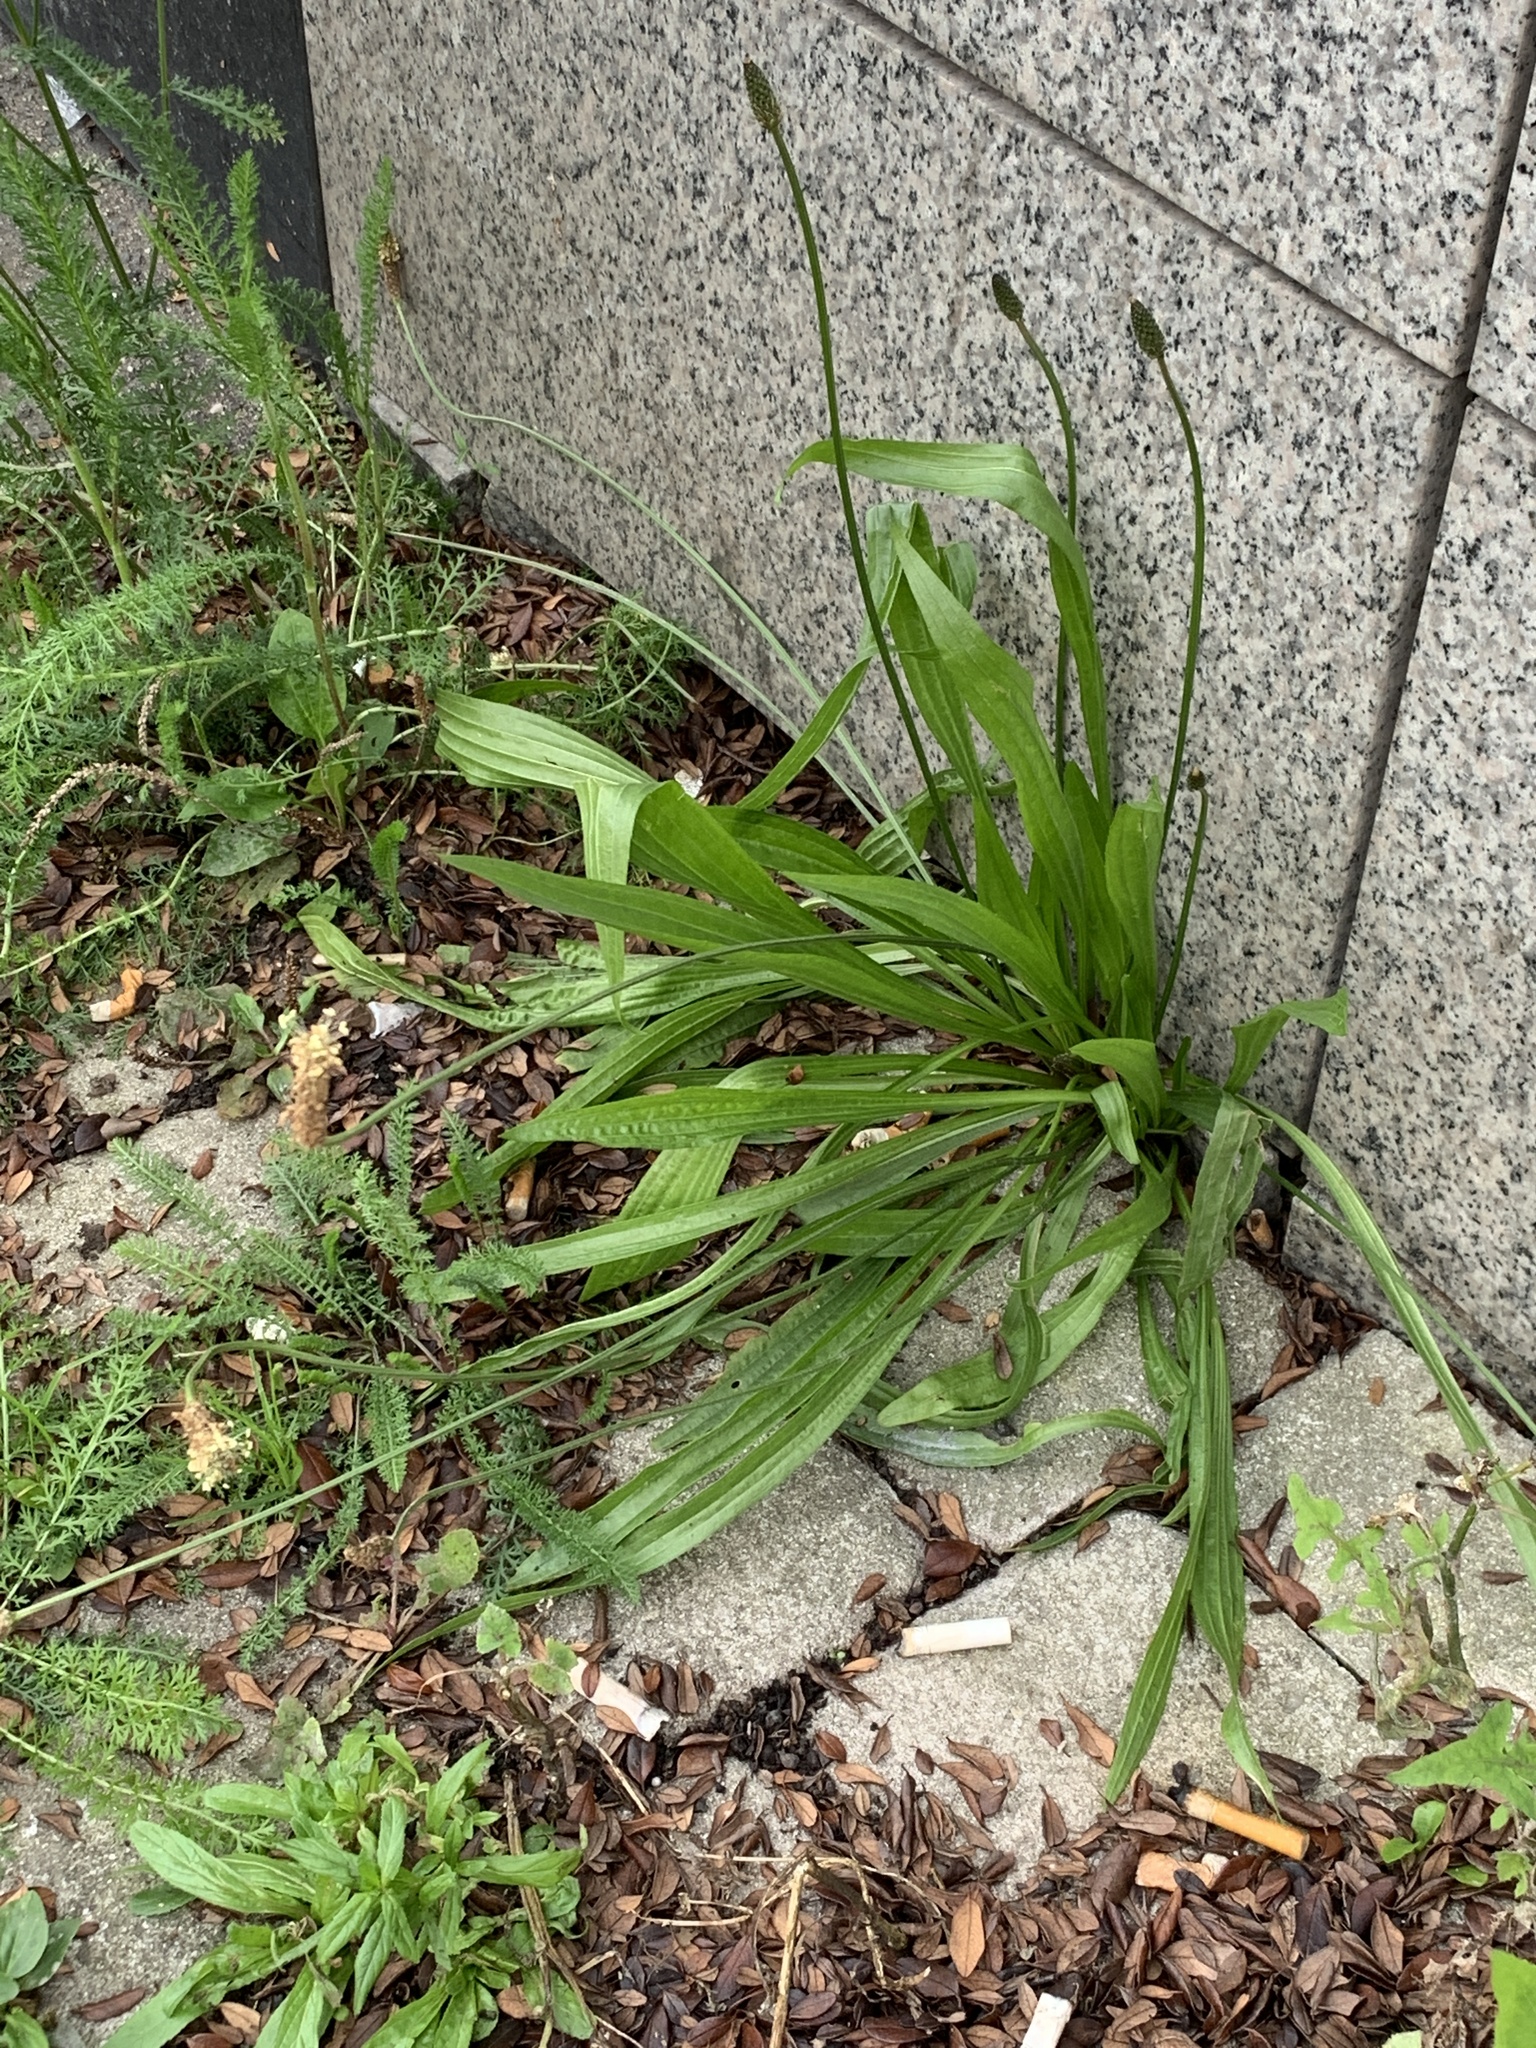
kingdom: Plantae
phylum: Tracheophyta
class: Magnoliopsida
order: Lamiales
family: Plantaginaceae
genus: Plantago
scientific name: Plantago lanceolata
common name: Ribwort plantain
